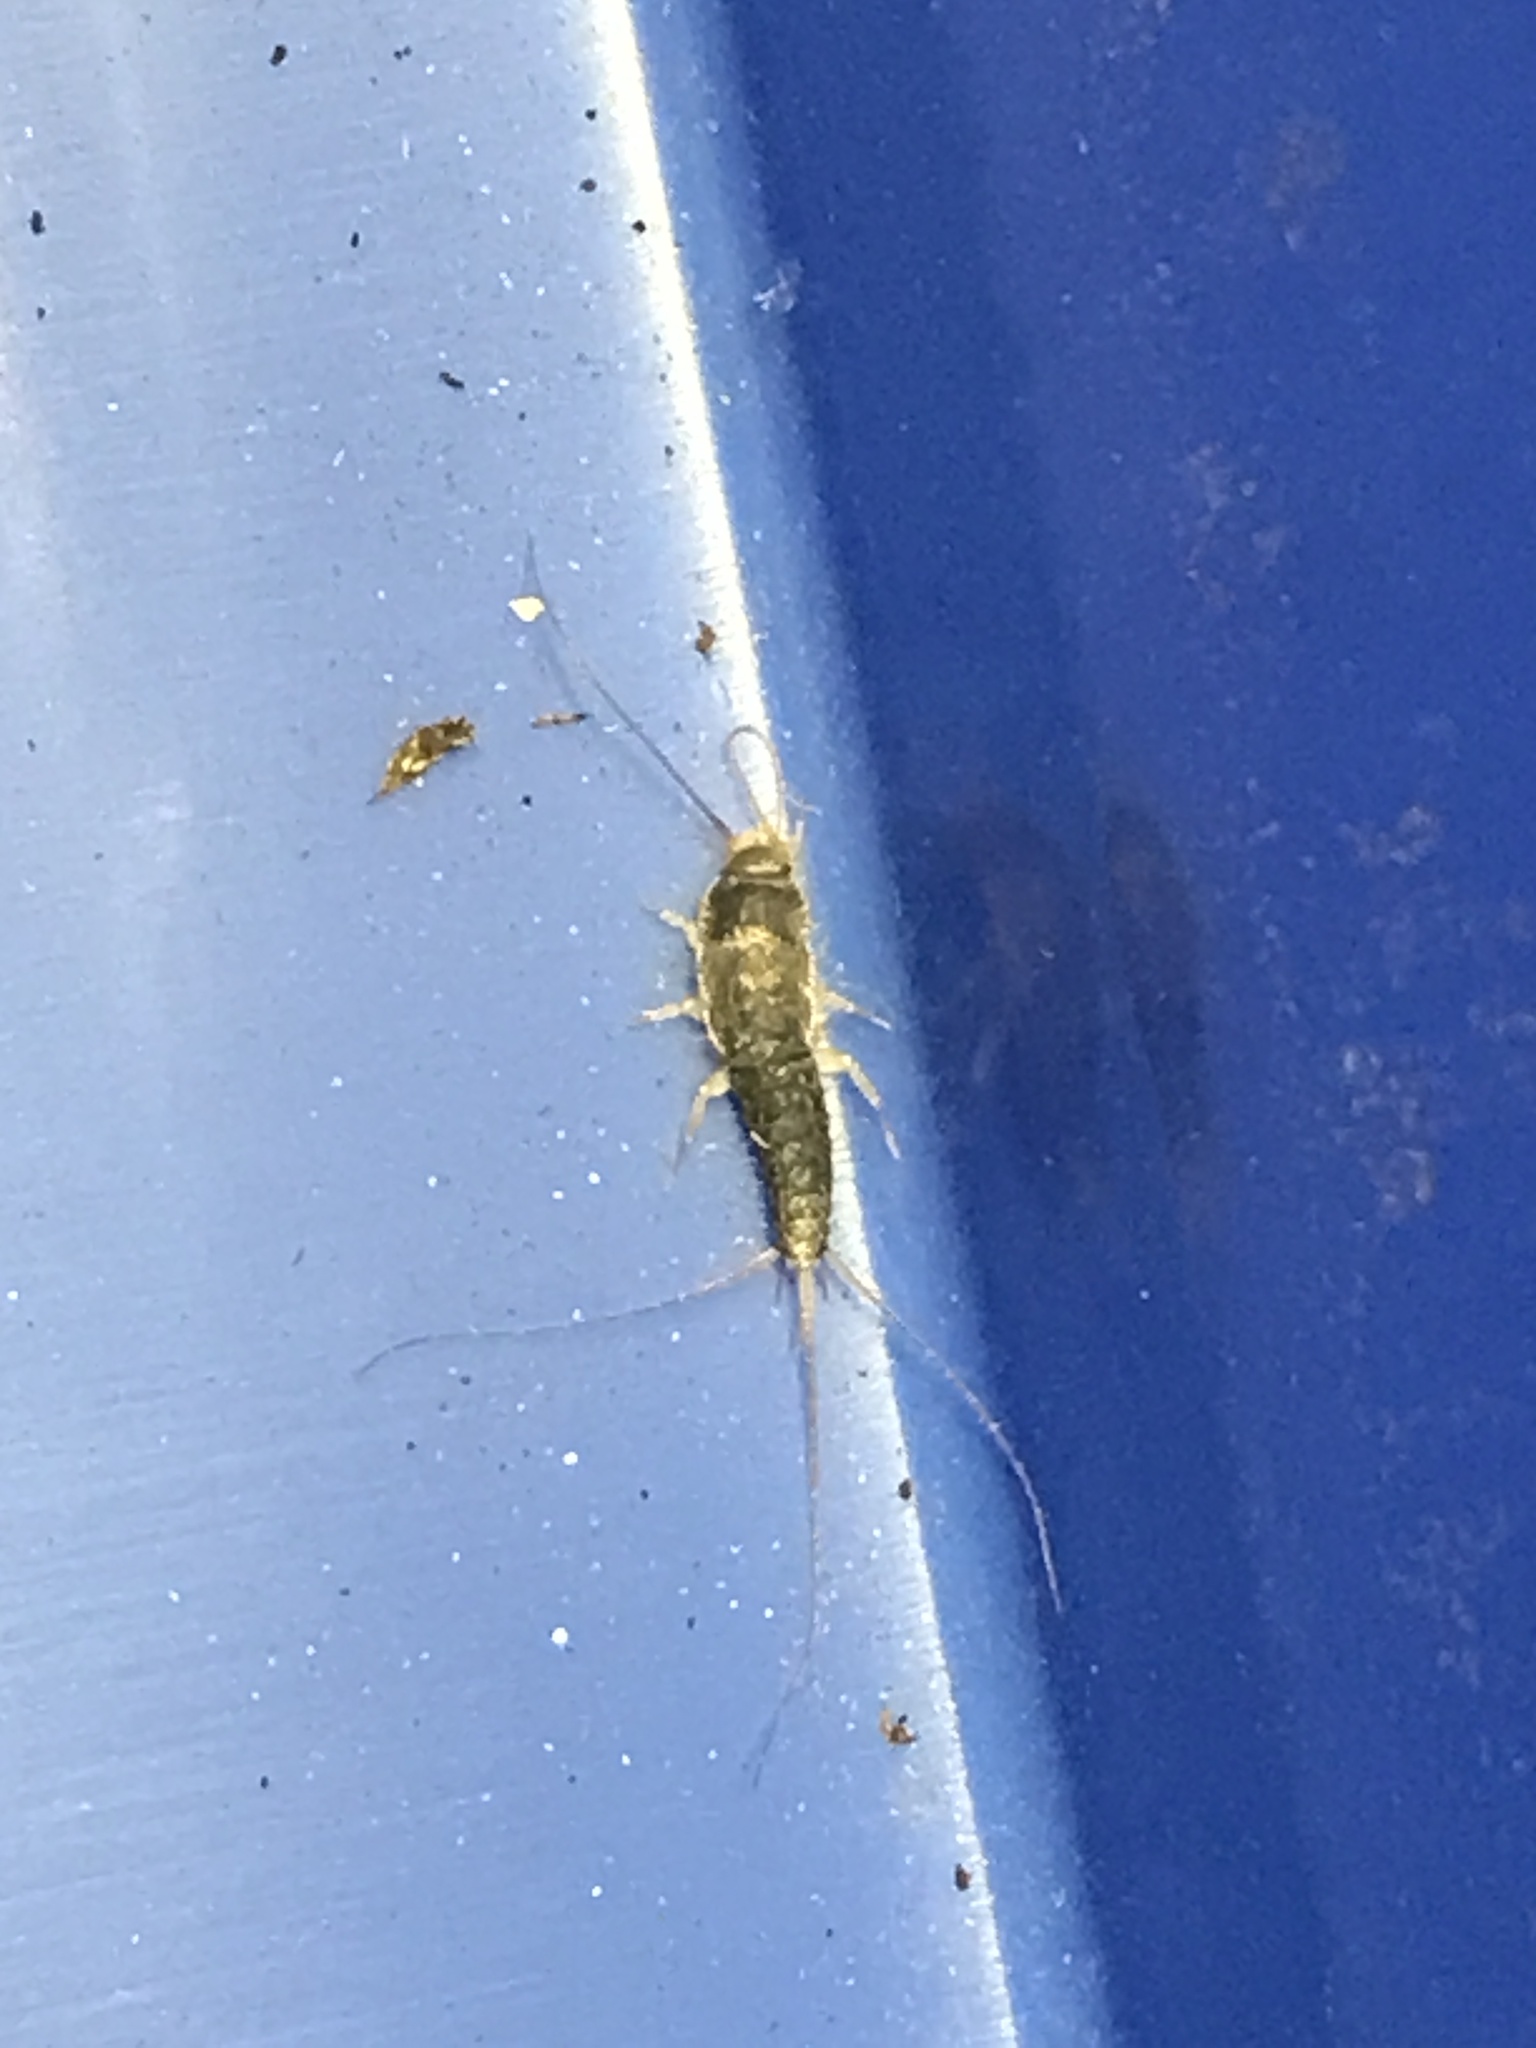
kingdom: Animalia
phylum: Arthropoda
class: Insecta
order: Zygentoma
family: Lepismatidae
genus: Ctenolepisma
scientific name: Ctenolepisma longicaudatum
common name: Silverfish
